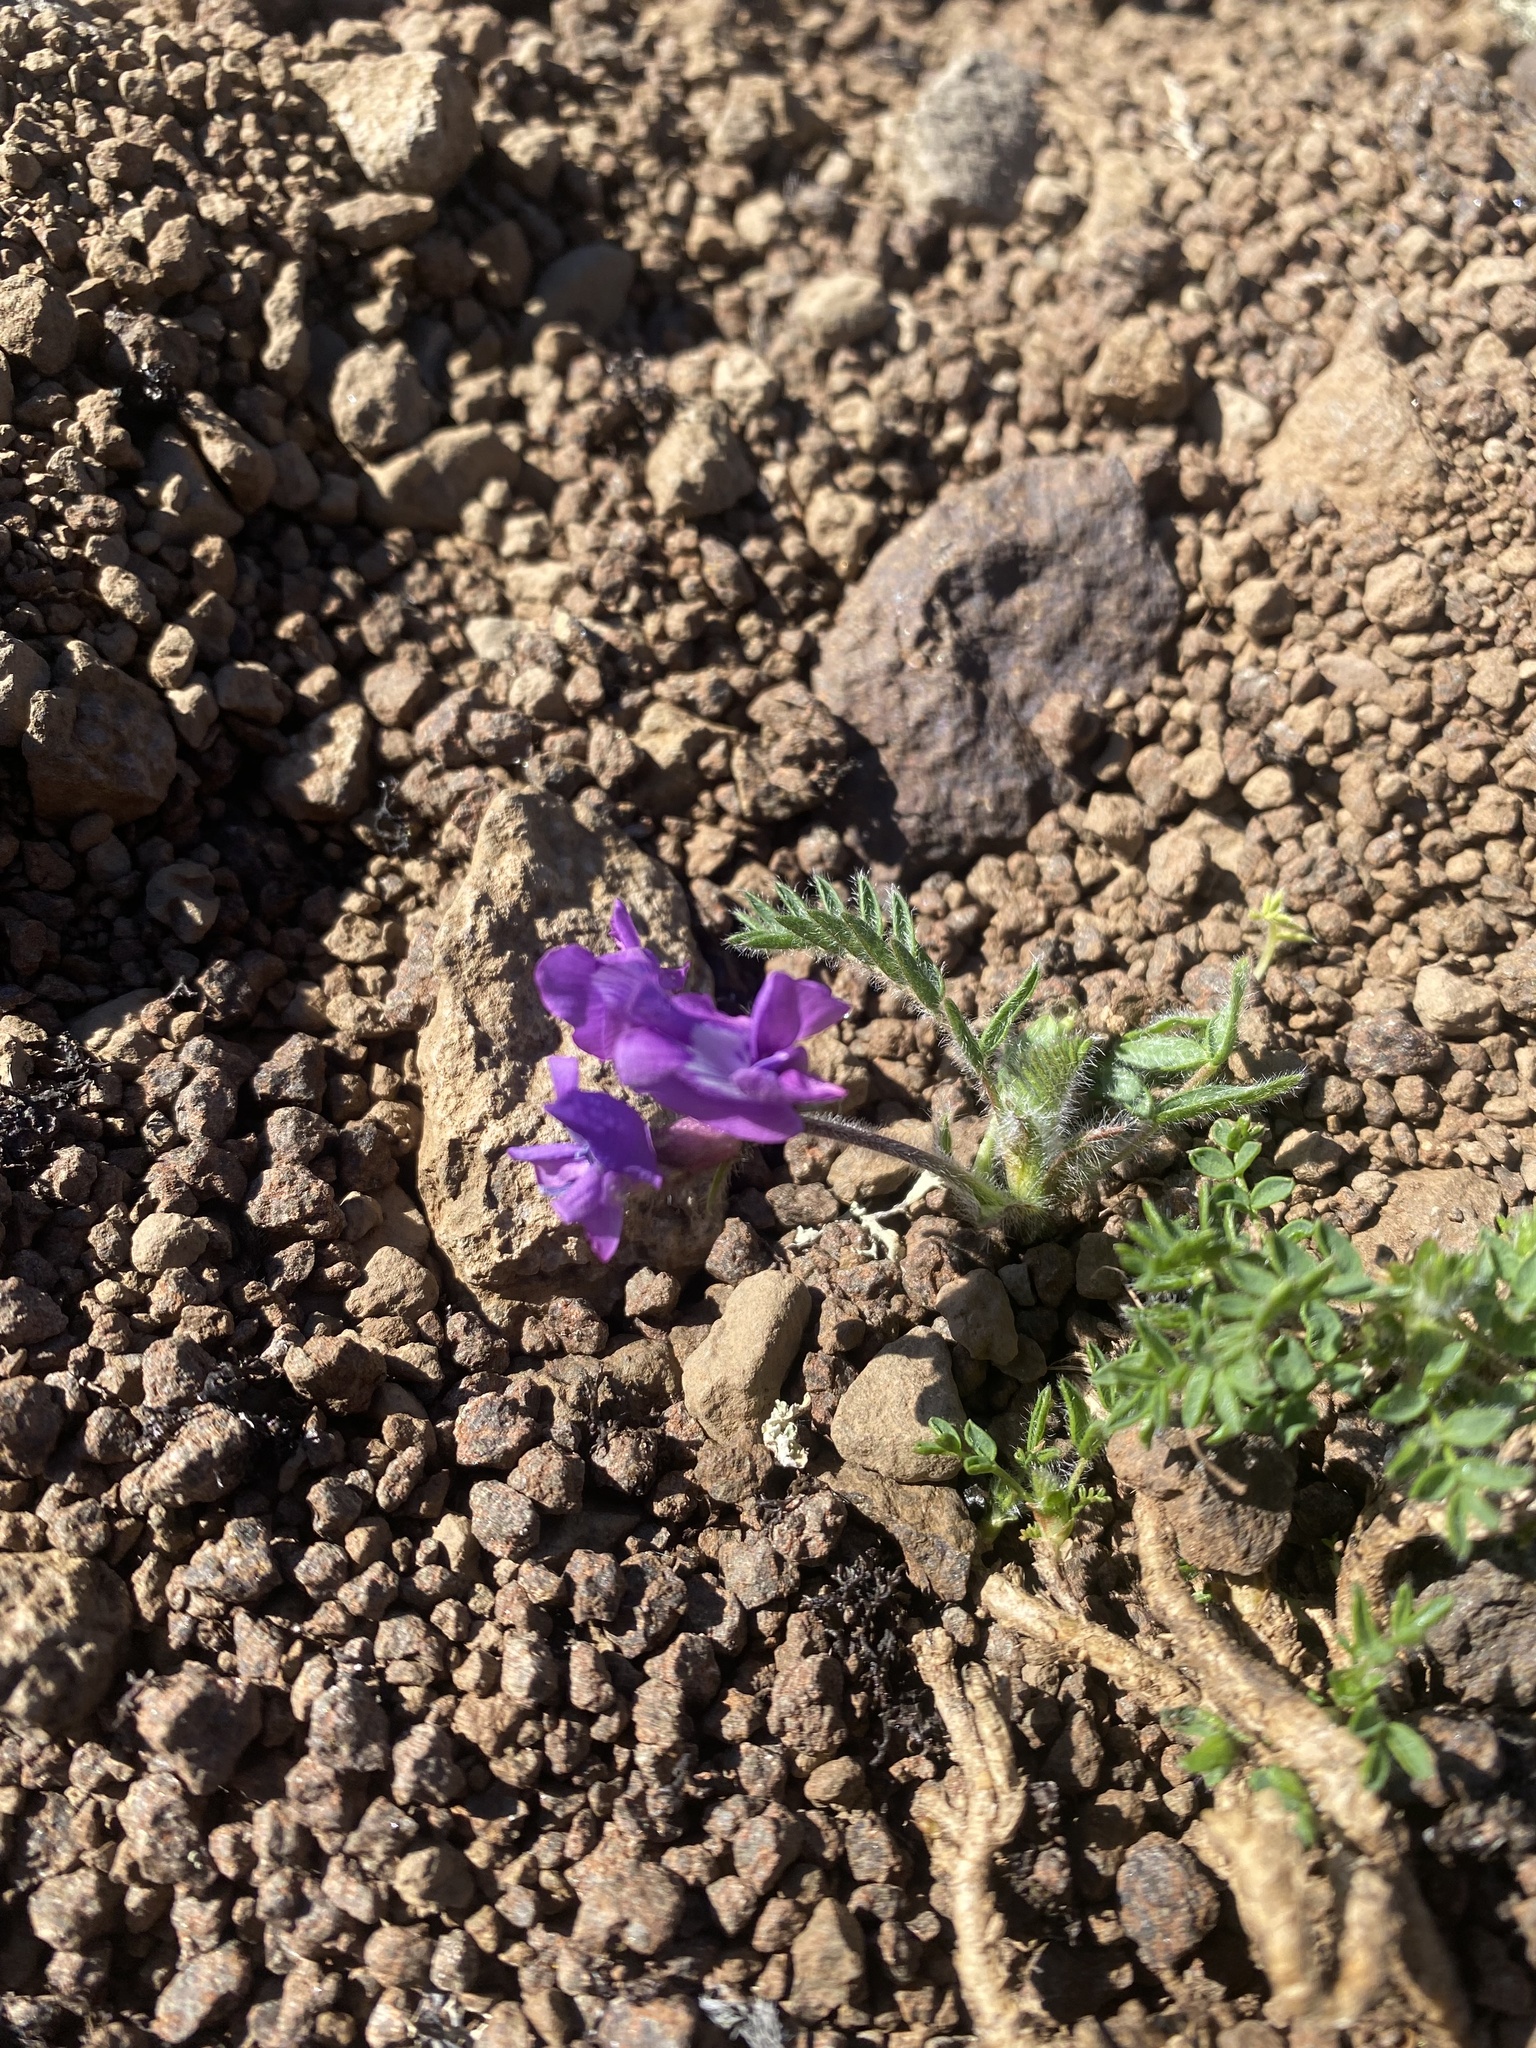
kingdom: Plantae
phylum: Tracheophyta
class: Magnoliopsida
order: Fabales
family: Fabaceae
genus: Oxytropis
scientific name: Oxytropis nigrescens
